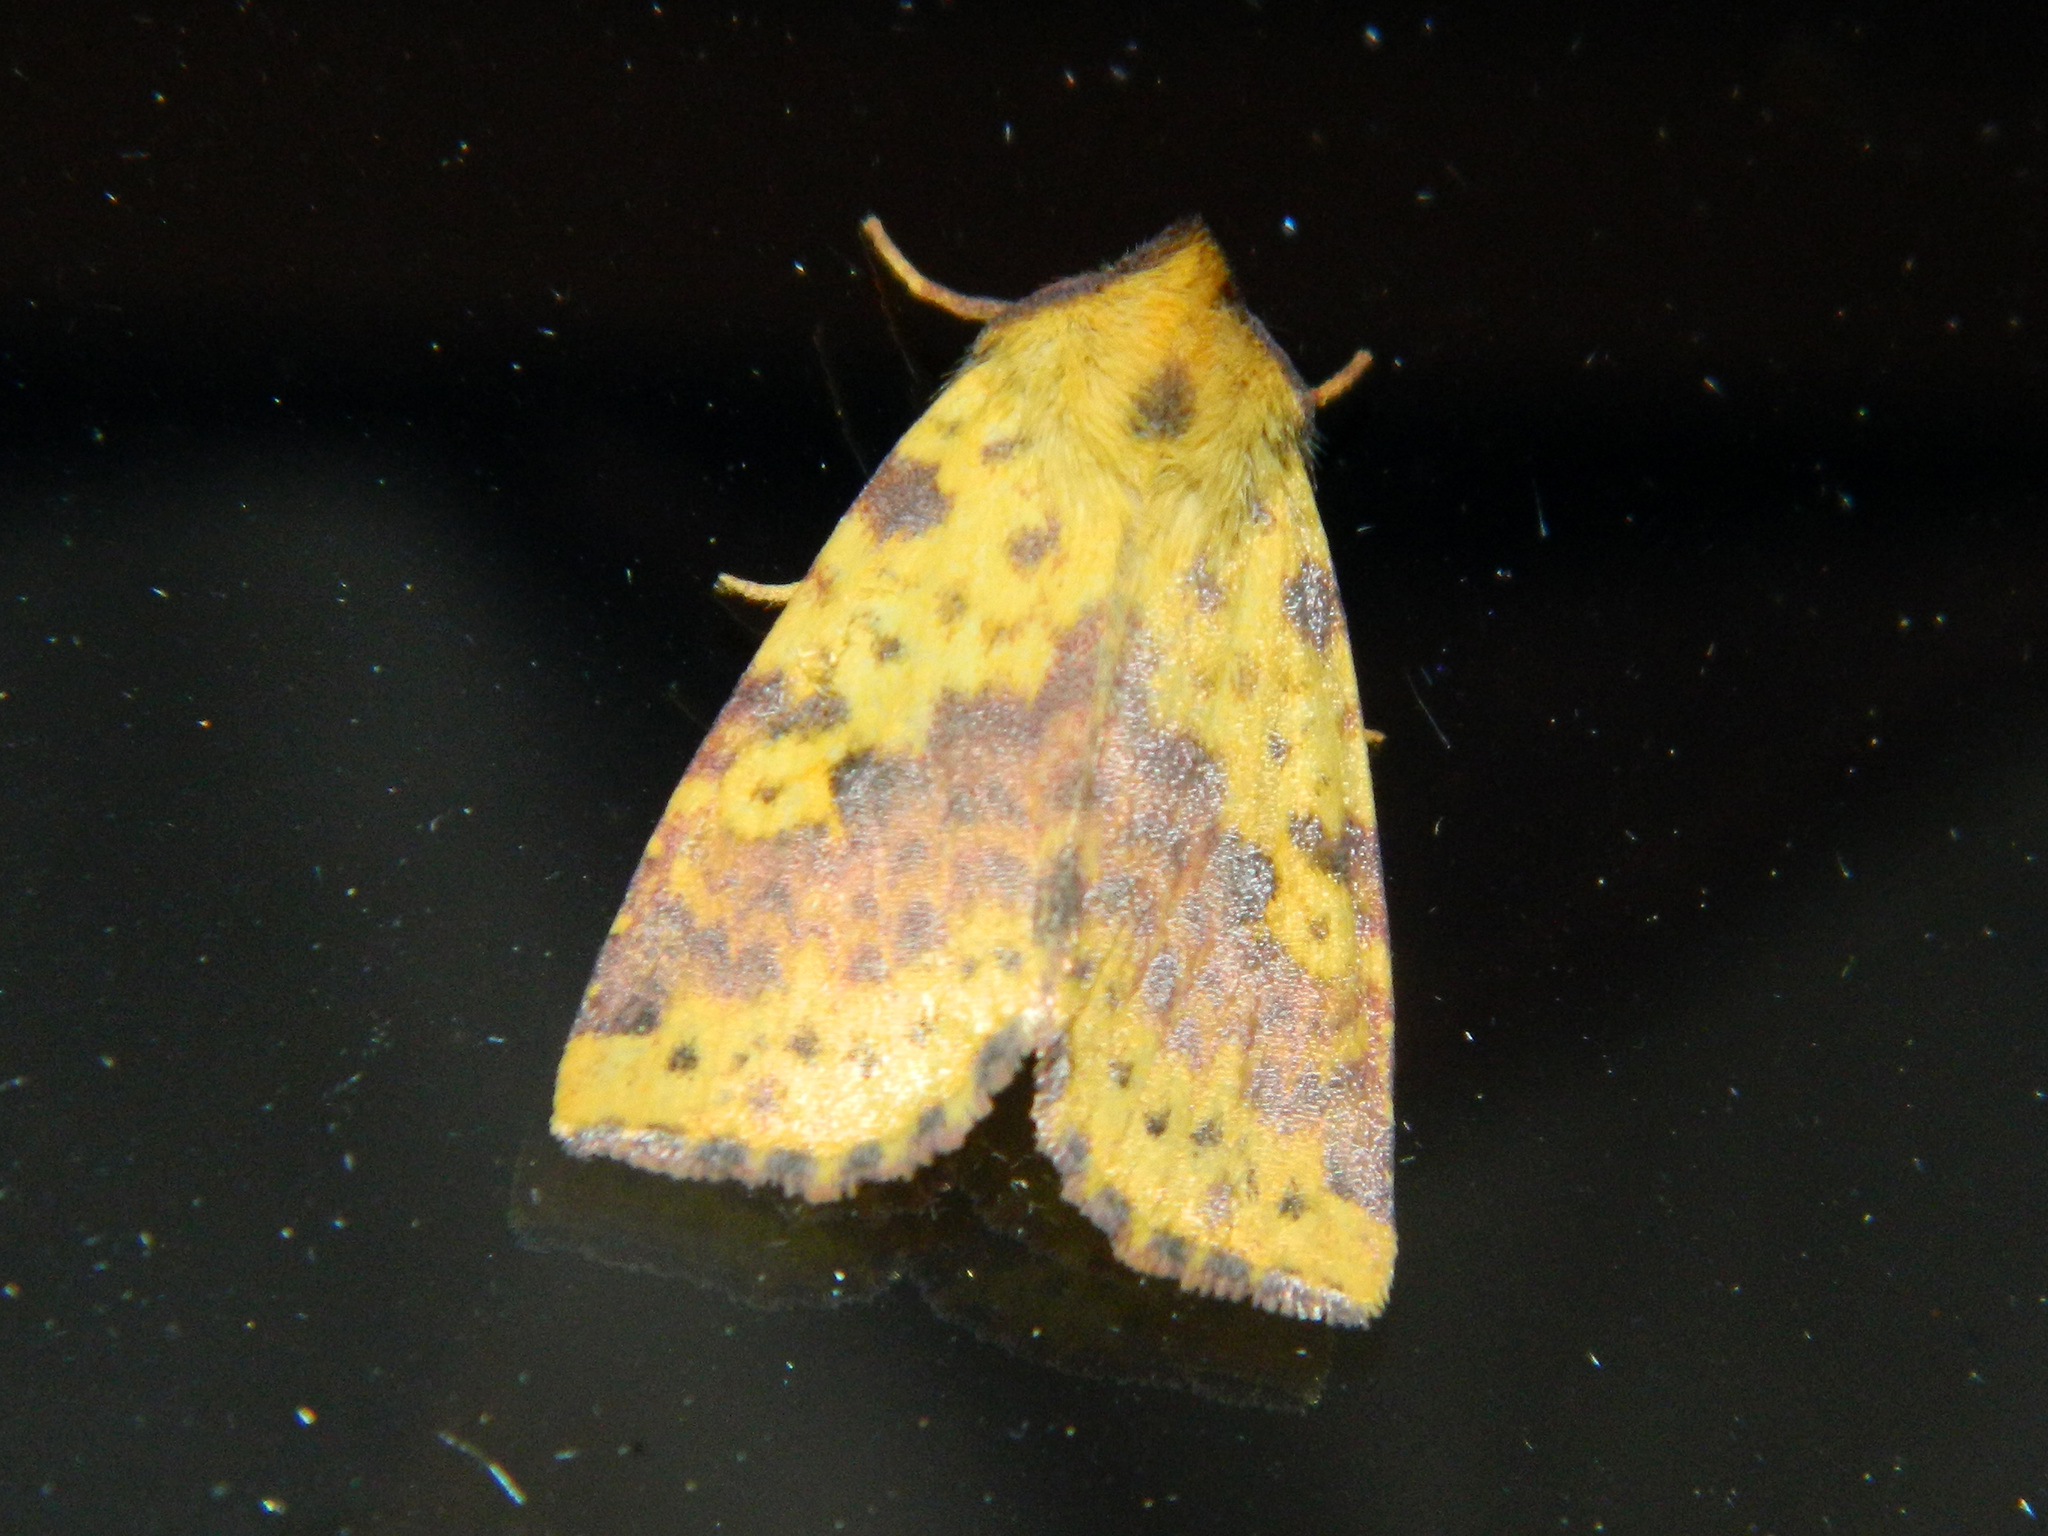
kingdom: Animalia
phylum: Arthropoda
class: Insecta
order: Lepidoptera
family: Noctuidae
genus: Xanthia
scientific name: Xanthia tatago
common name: Pink-banded sallow
